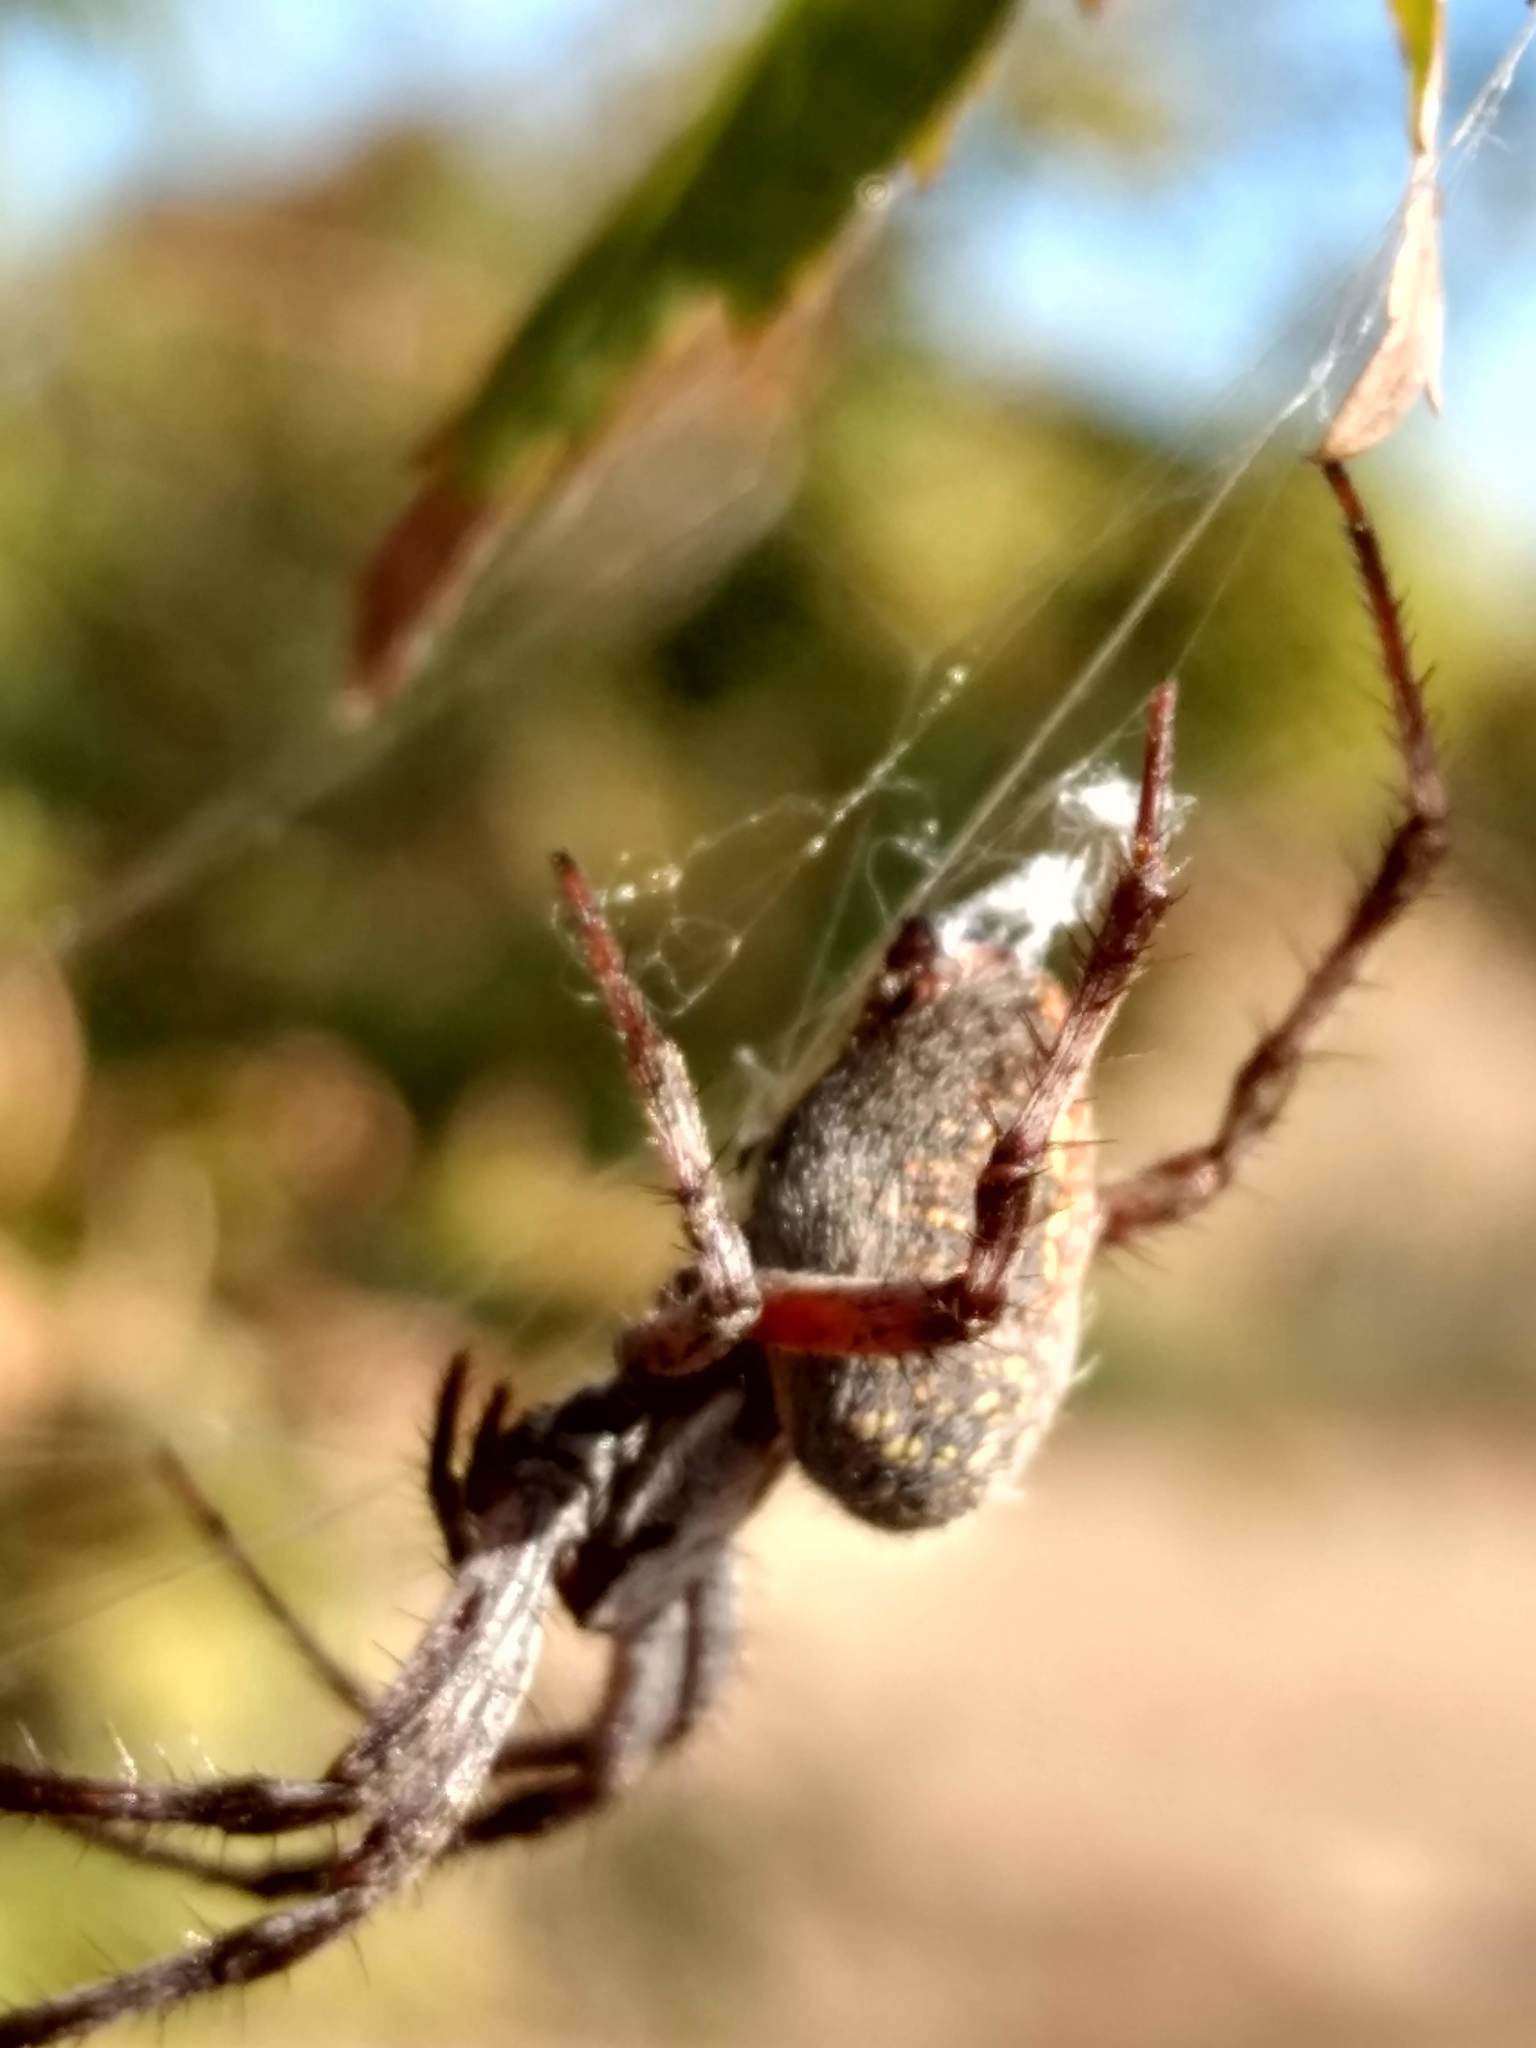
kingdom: Animalia
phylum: Arthropoda
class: Arachnida
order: Araneae
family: Araneidae
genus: Neoscona
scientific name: Neoscona oaxacensis
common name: Orb weavers
